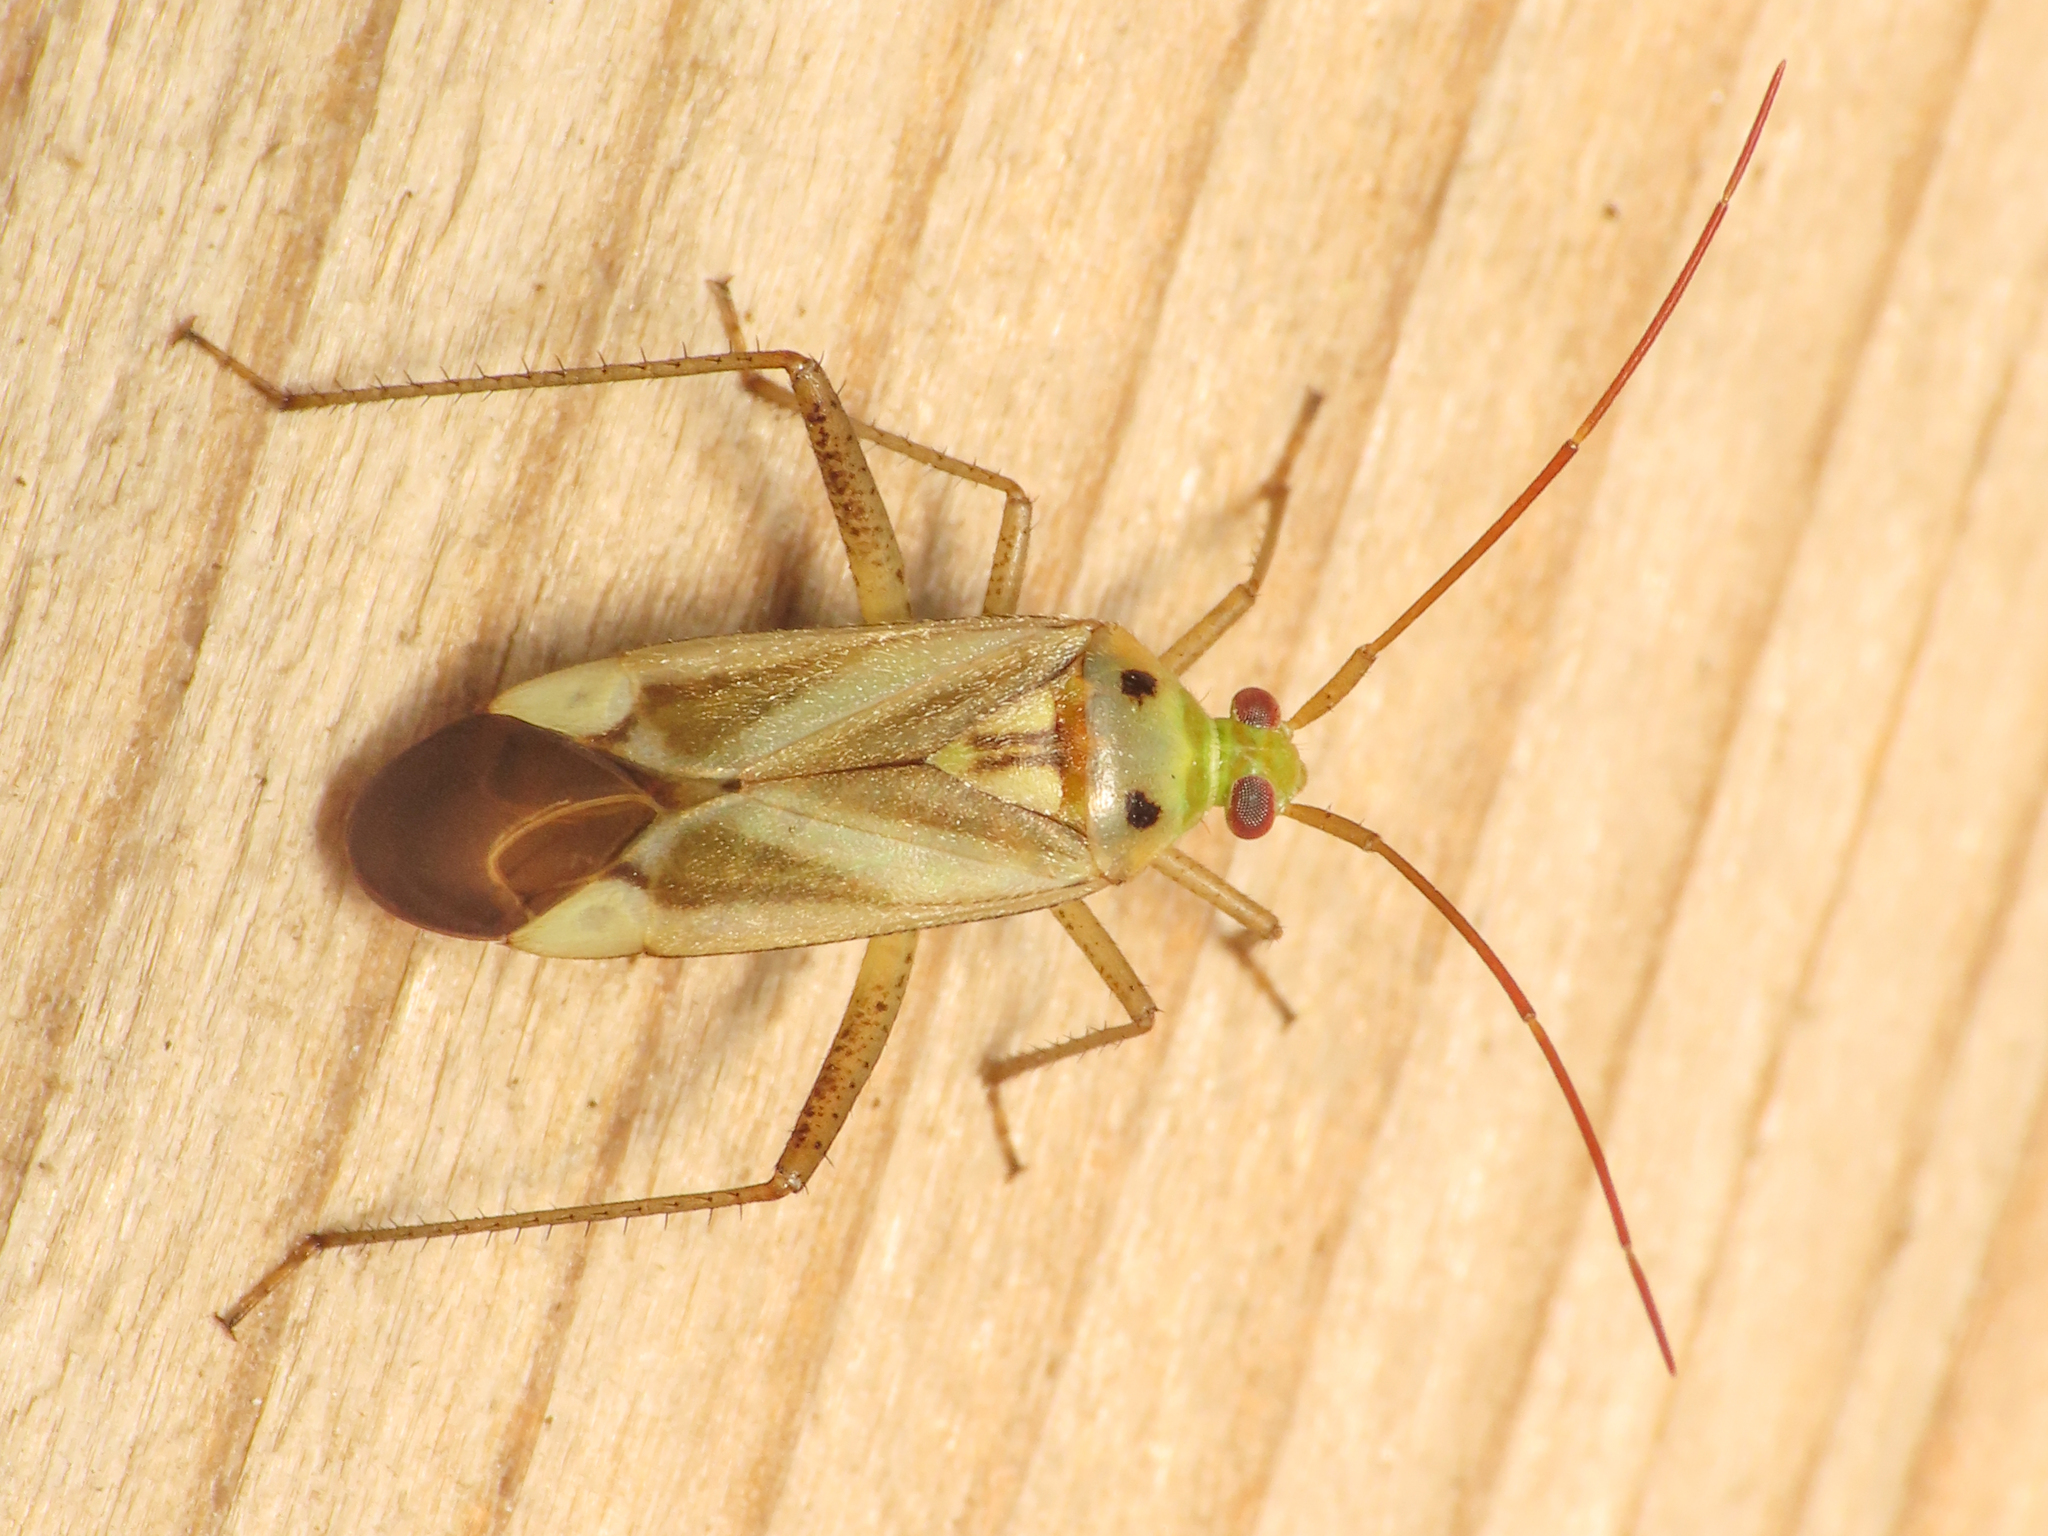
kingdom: Animalia
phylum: Arthropoda
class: Insecta
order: Hemiptera
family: Miridae
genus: Adelphocoris
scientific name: Adelphocoris lineolatus
